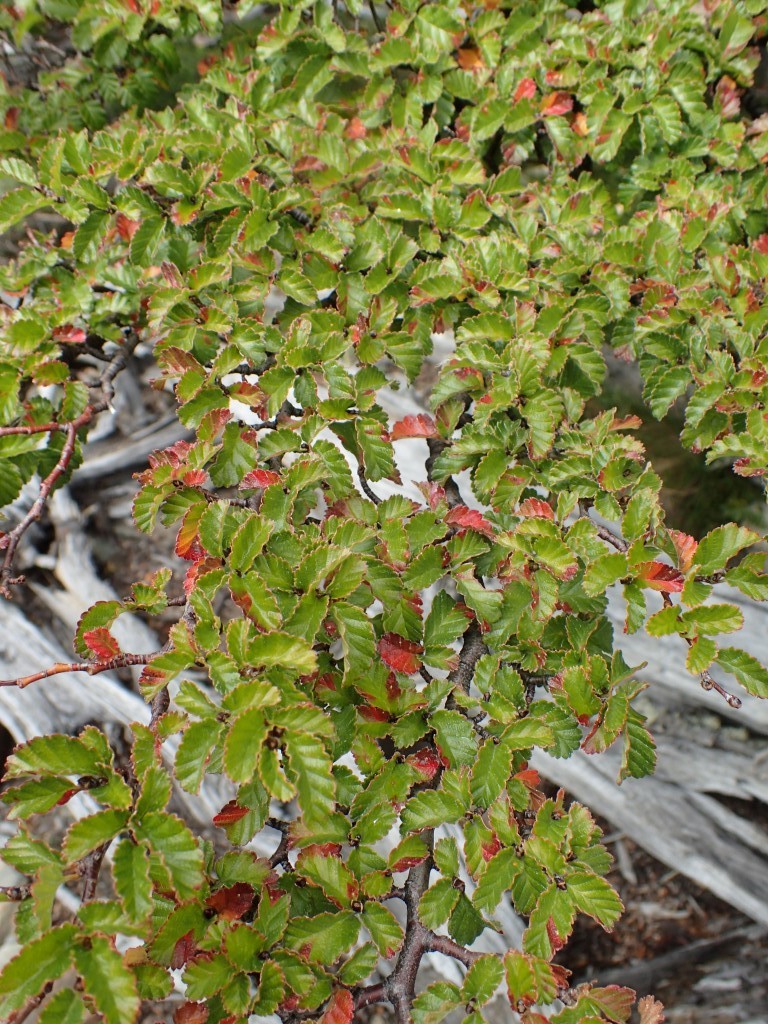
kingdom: Plantae
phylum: Tracheophyta
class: Magnoliopsida
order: Fagales
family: Nothofagaceae
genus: Nothofagus
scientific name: Nothofagus pumilio
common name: Lenga beech
